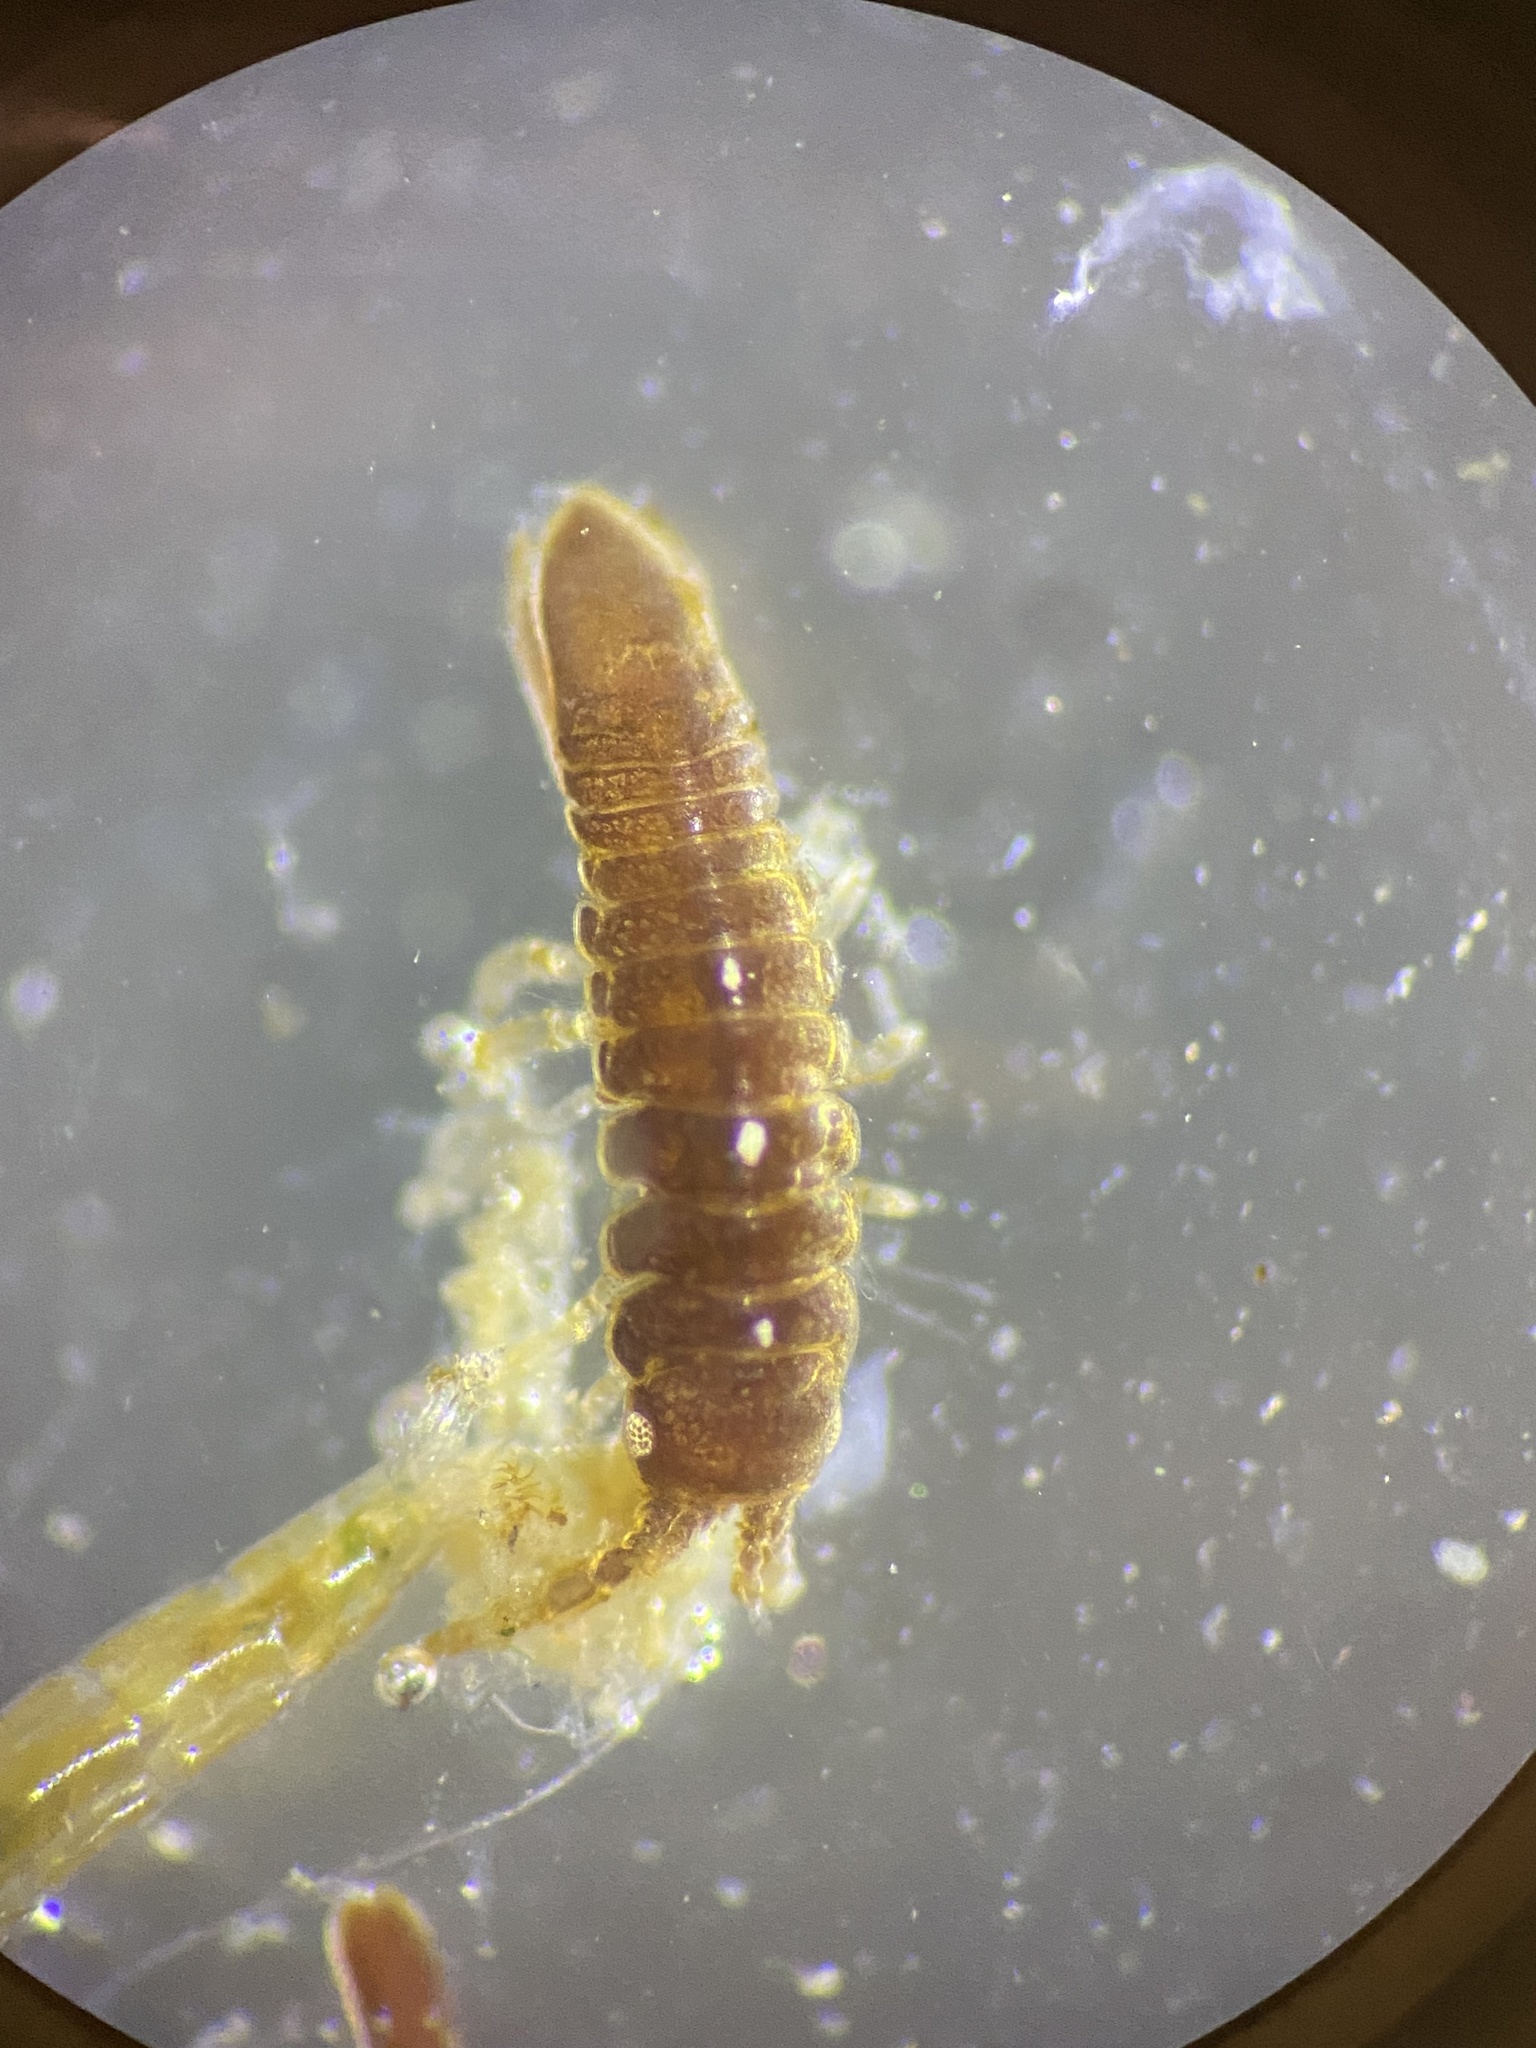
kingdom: Animalia
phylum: Arthropoda
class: Malacostraca
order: Isopoda
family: Idoteidae
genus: Idotea
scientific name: Idotea neglecta
